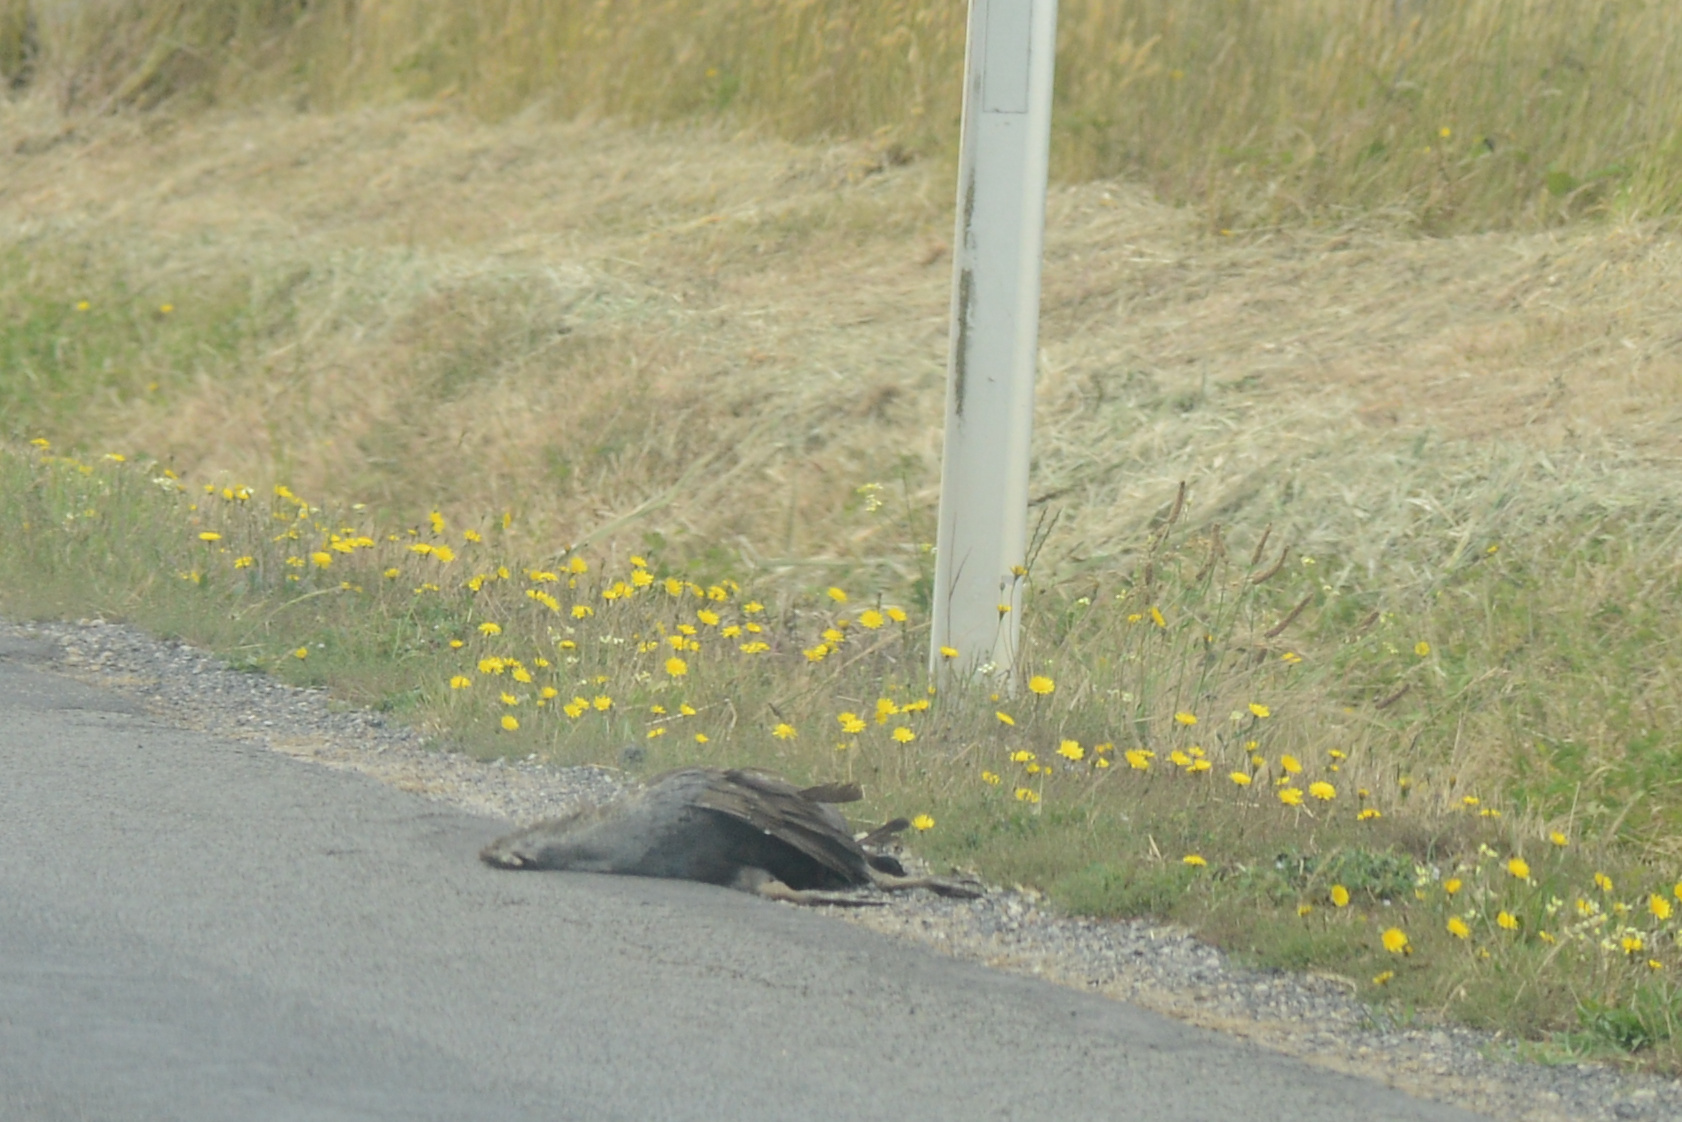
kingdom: Animalia
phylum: Chordata
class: Aves
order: Gruiformes
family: Rallidae
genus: Gallinula
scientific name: Gallinula mortierii
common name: Tasmanian nativehen
